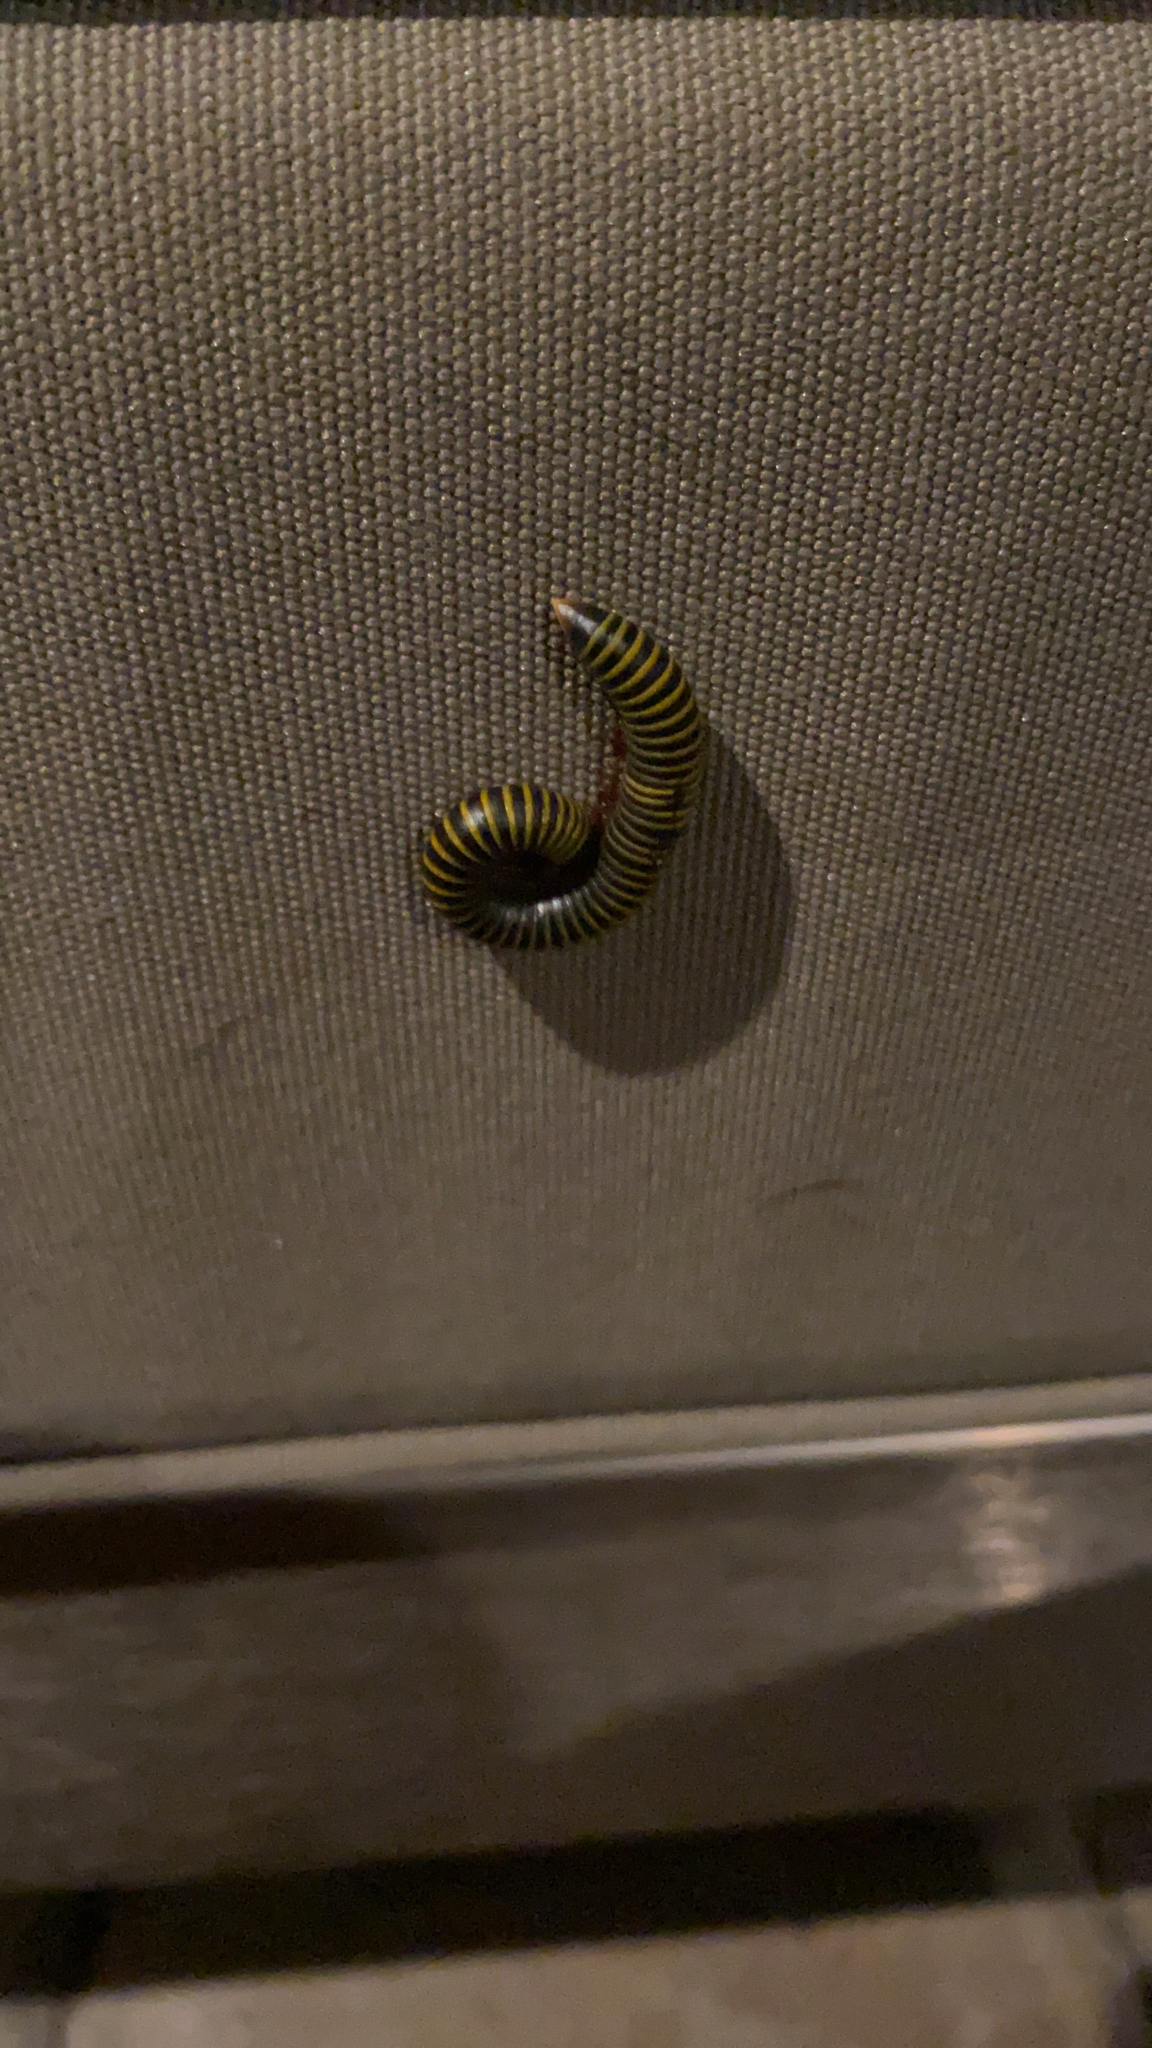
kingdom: Animalia
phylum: Arthropoda
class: Diplopoda
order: Spirobolida
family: Rhinocricidae
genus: Anadenobolus
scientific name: Anadenobolus monilicornis
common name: Caribbean millipede
